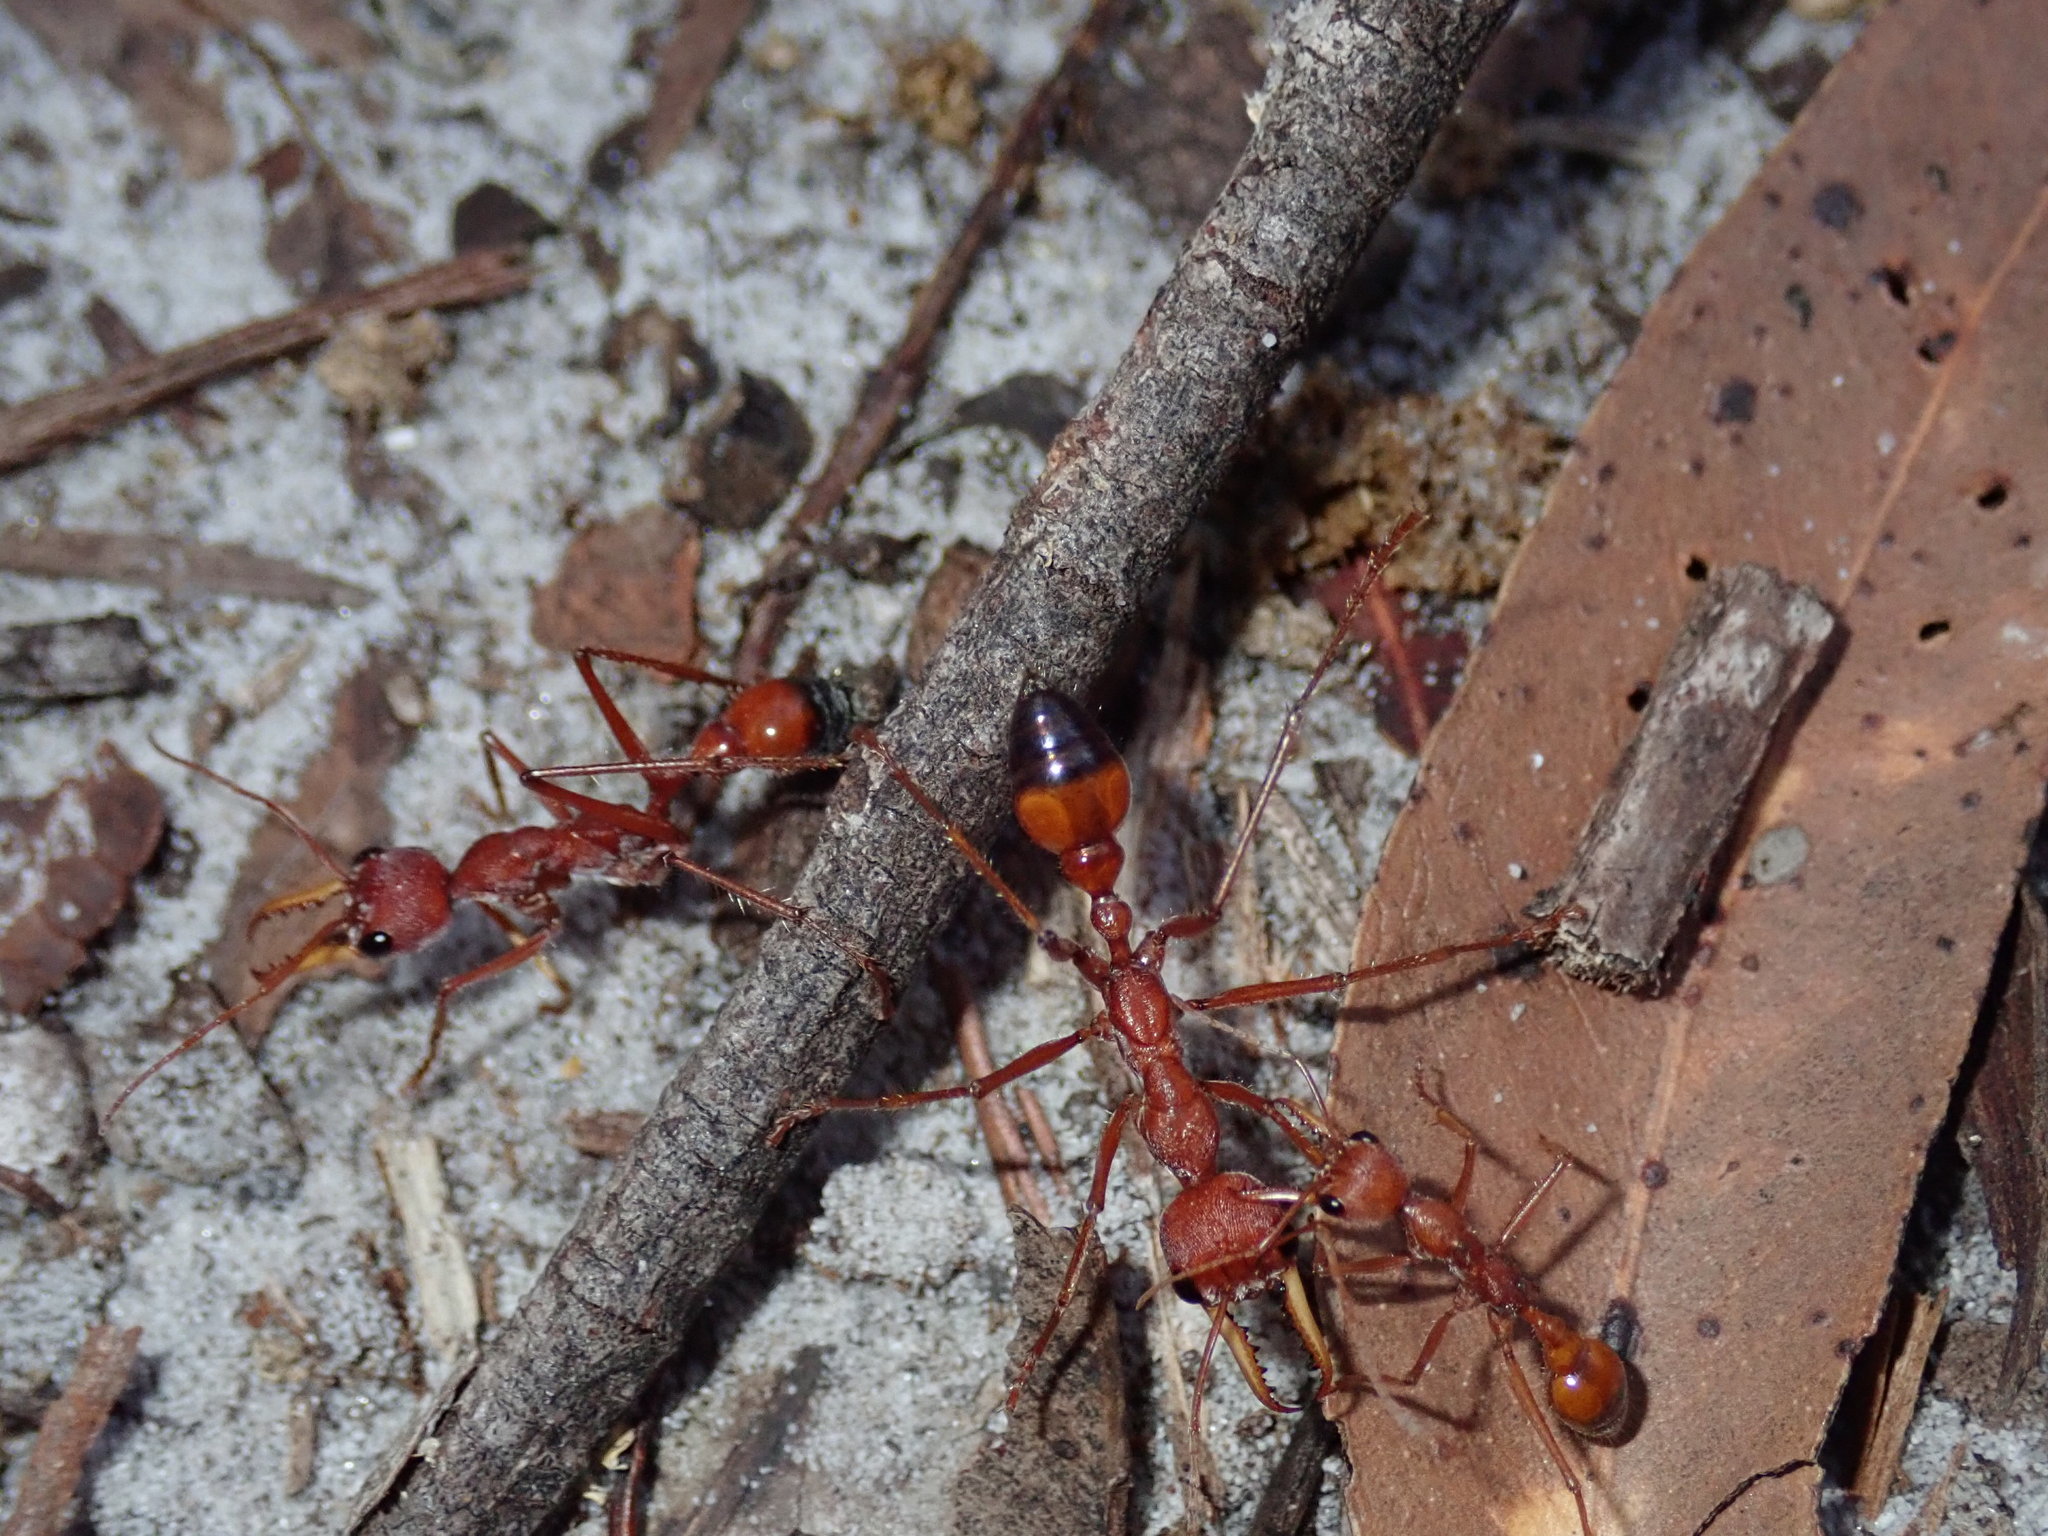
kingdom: Animalia
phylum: Arthropoda
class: Insecta
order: Hymenoptera
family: Formicidae
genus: Myrmecia
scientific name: Myrmecia gulosa
